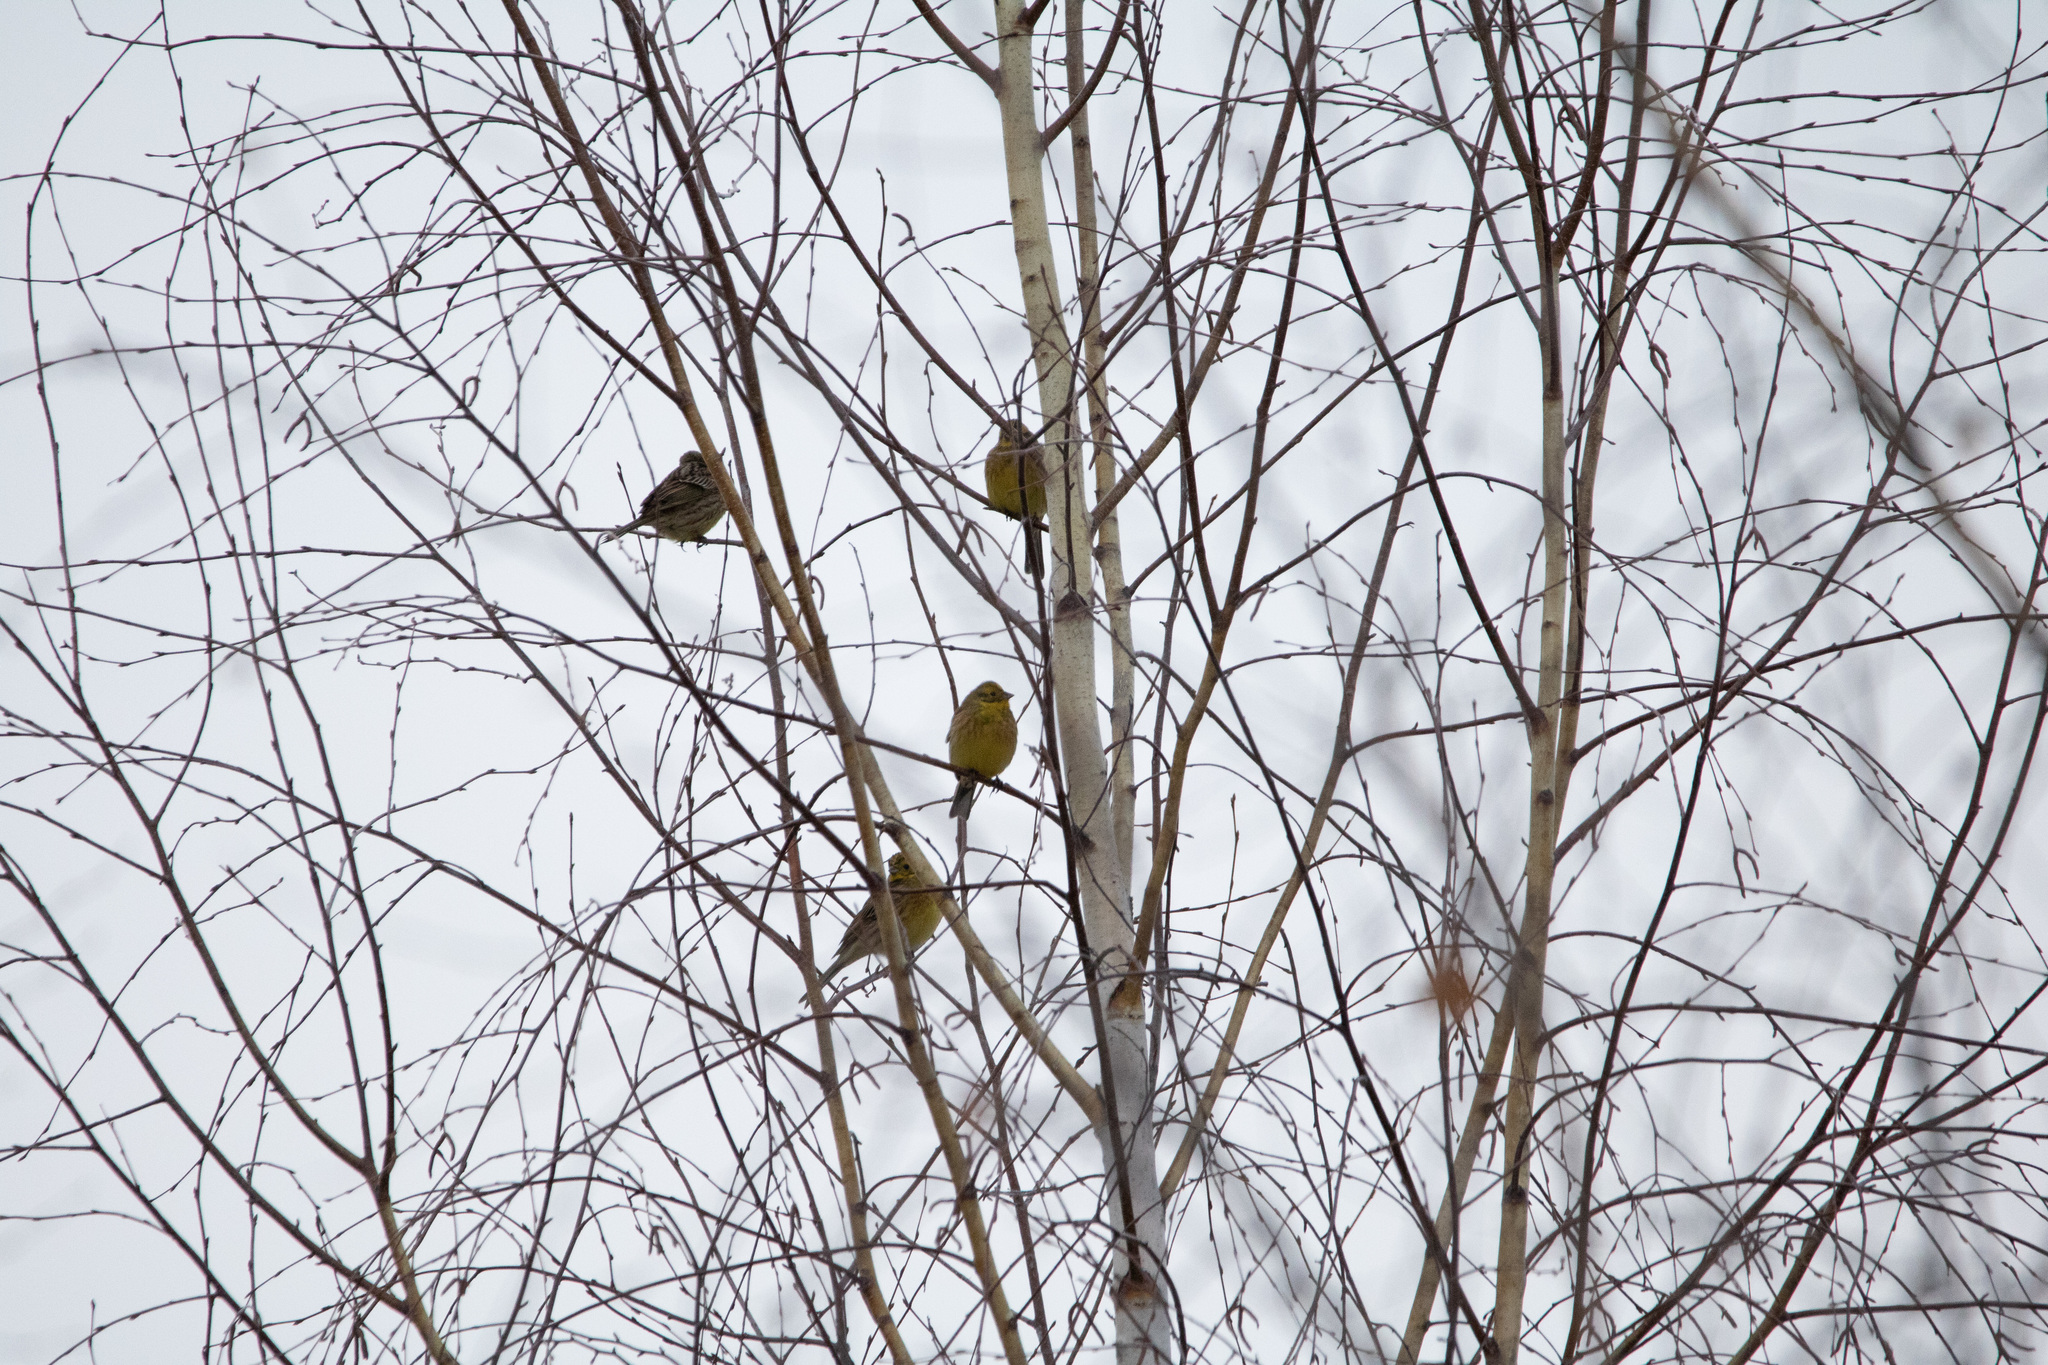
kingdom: Animalia
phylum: Chordata
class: Aves
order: Passeriformes
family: Emberizidae
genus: Emberiza
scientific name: Emberiza citrinella
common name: Yellowhammer
